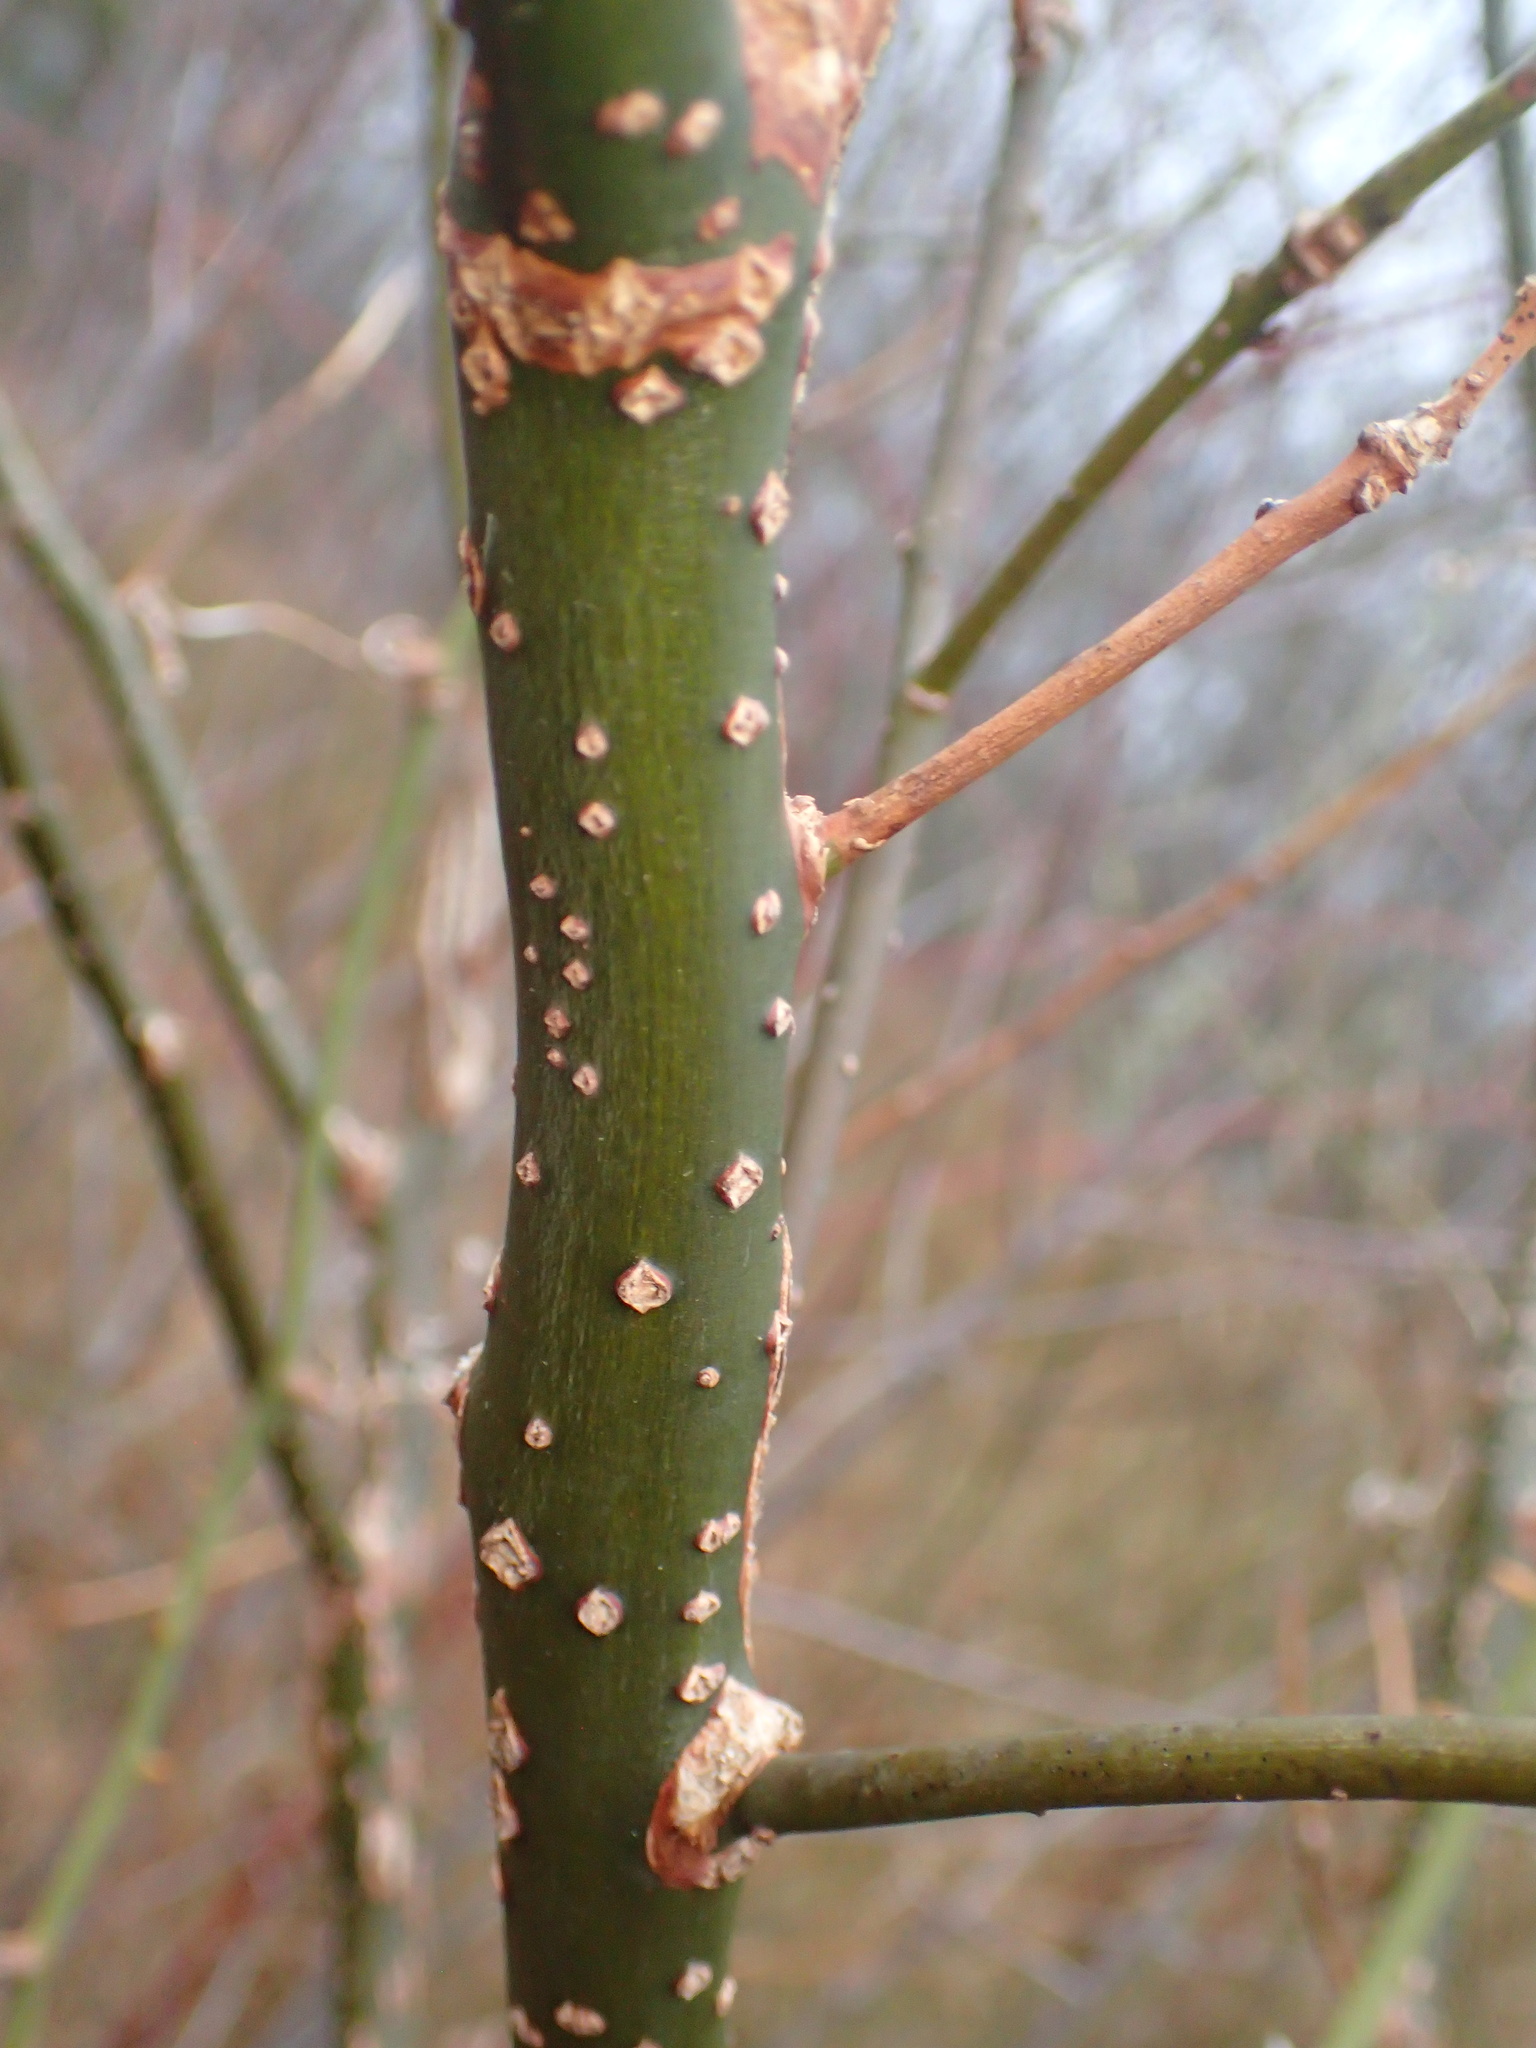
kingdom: Plantae
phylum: Tracheophyta
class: Magnoliopsida
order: Laurales
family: Lauraceae
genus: Sassafras
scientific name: Sassafras albidum
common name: Sassafras
